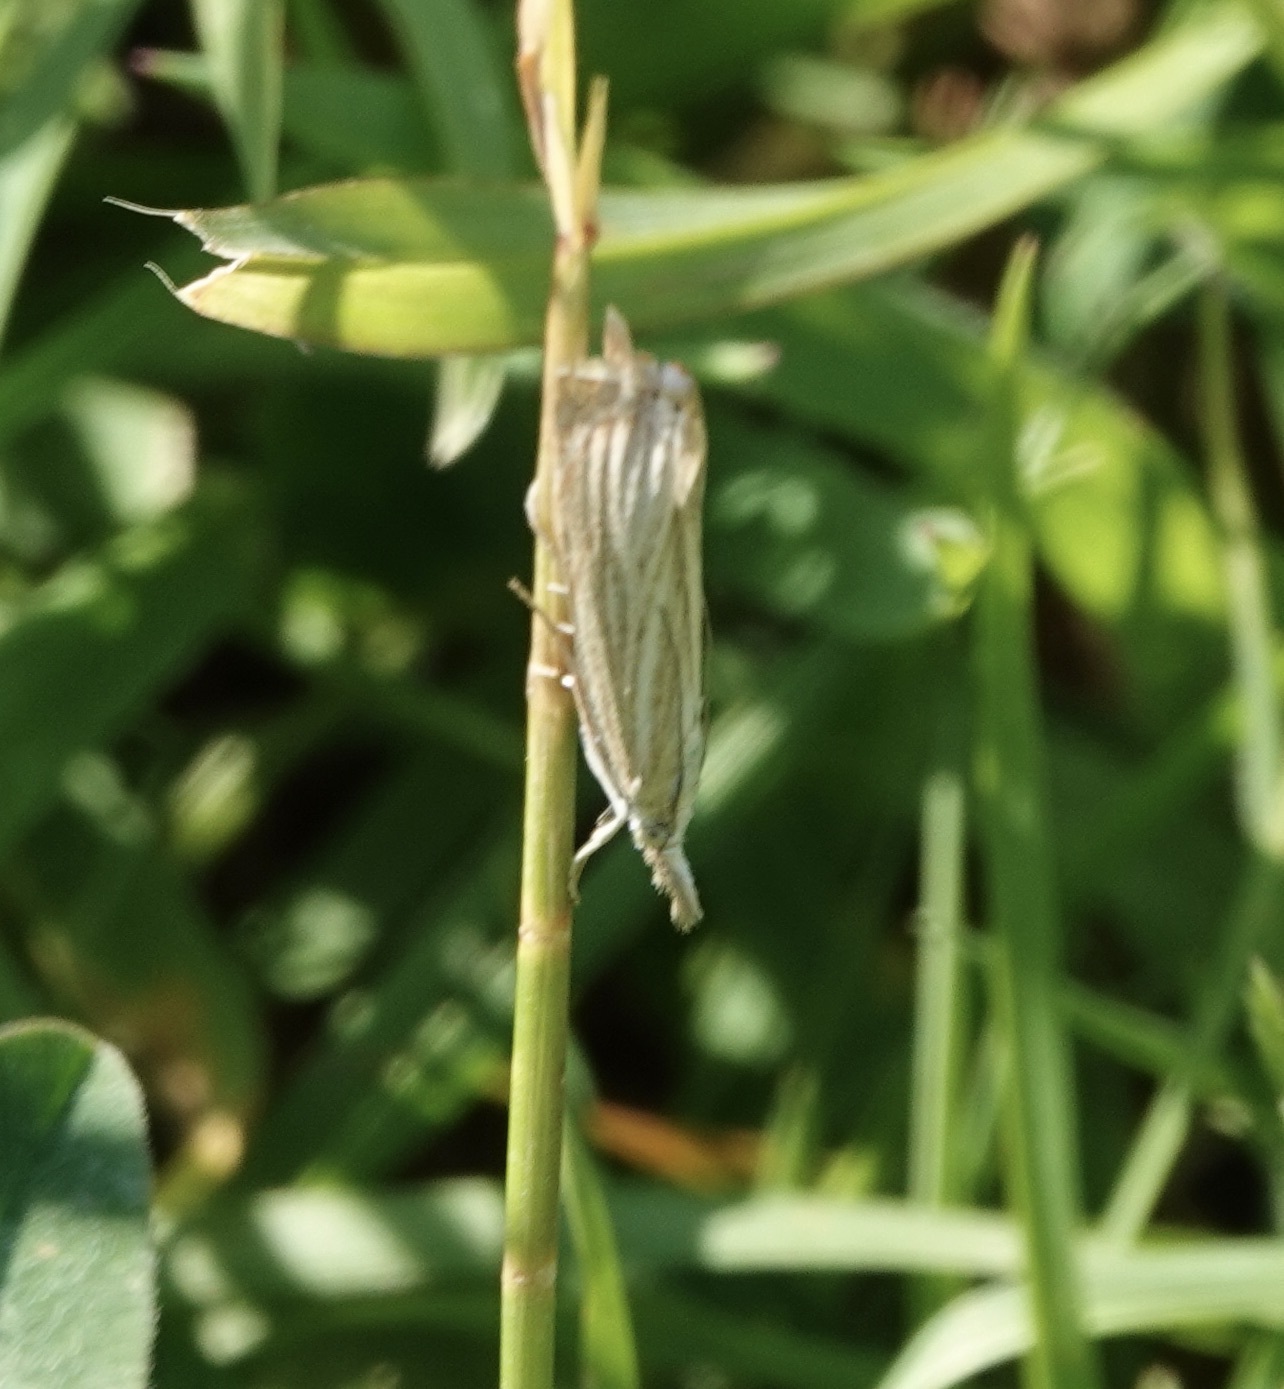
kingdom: Animalia
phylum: Arthropoda
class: Insecta
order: Lepidoptera
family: Crambidae
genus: Chrysoteuchia
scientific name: Chrysoteuchia culmella
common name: Garden grass-veneer
